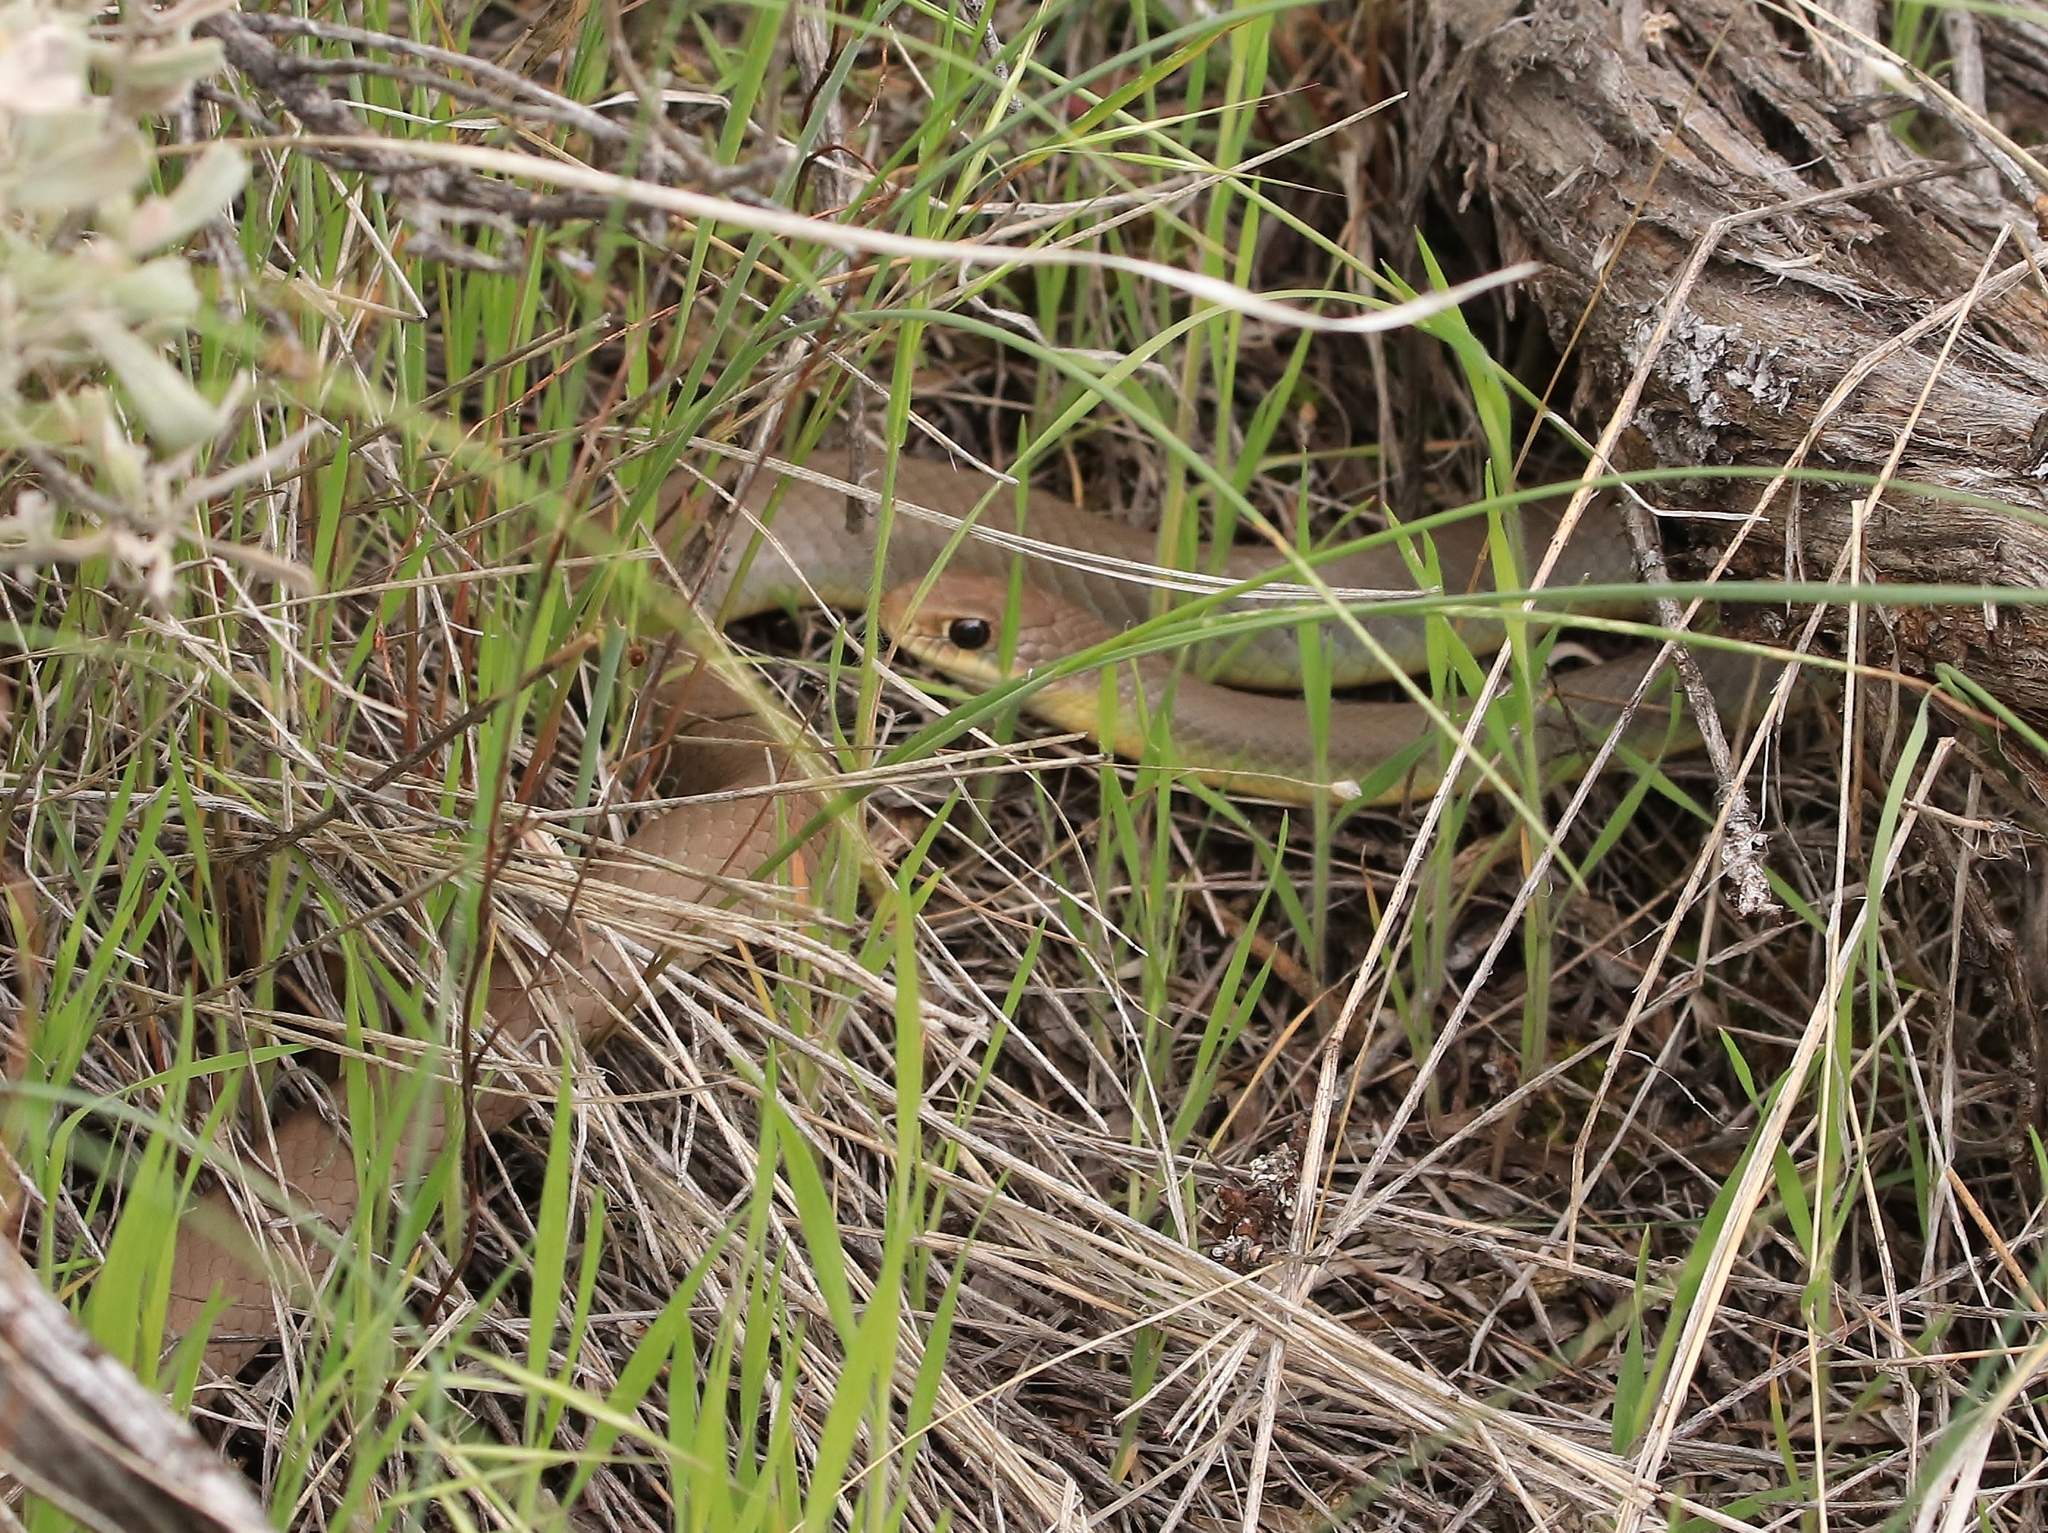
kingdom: Animalia
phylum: Chordata
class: Squamata
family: Colubridae
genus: Coluber
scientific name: Coluber constrictor
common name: Eastern racer
